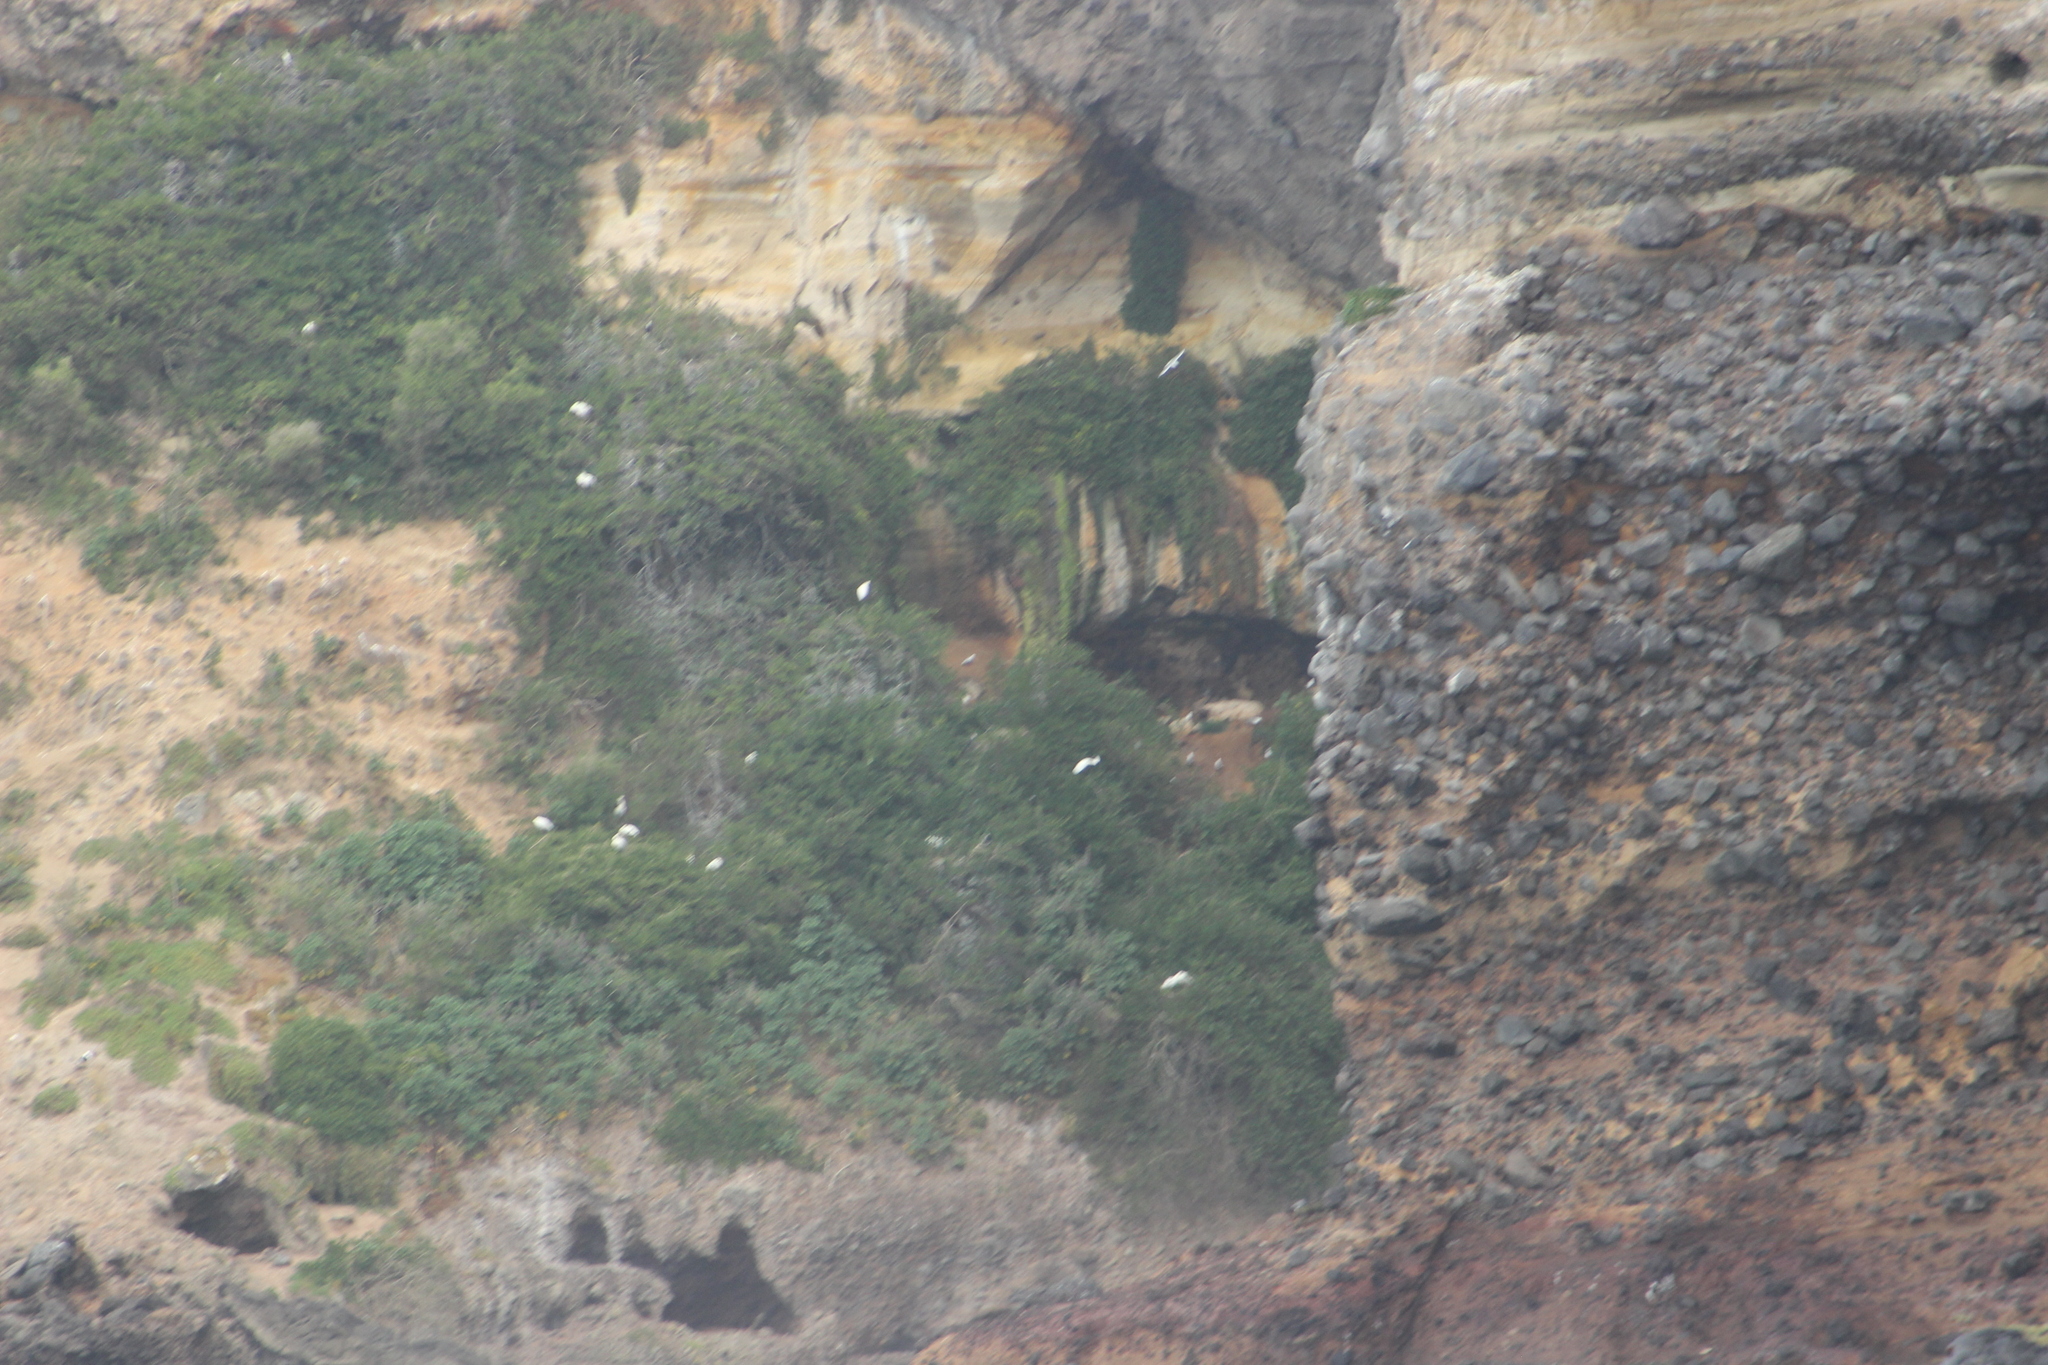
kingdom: Animalia
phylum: Chordata
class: Aves
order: Pelecaniformes
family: Threskiornithidae
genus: Platalea
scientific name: Platalea regia
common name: Royal spoonbill
